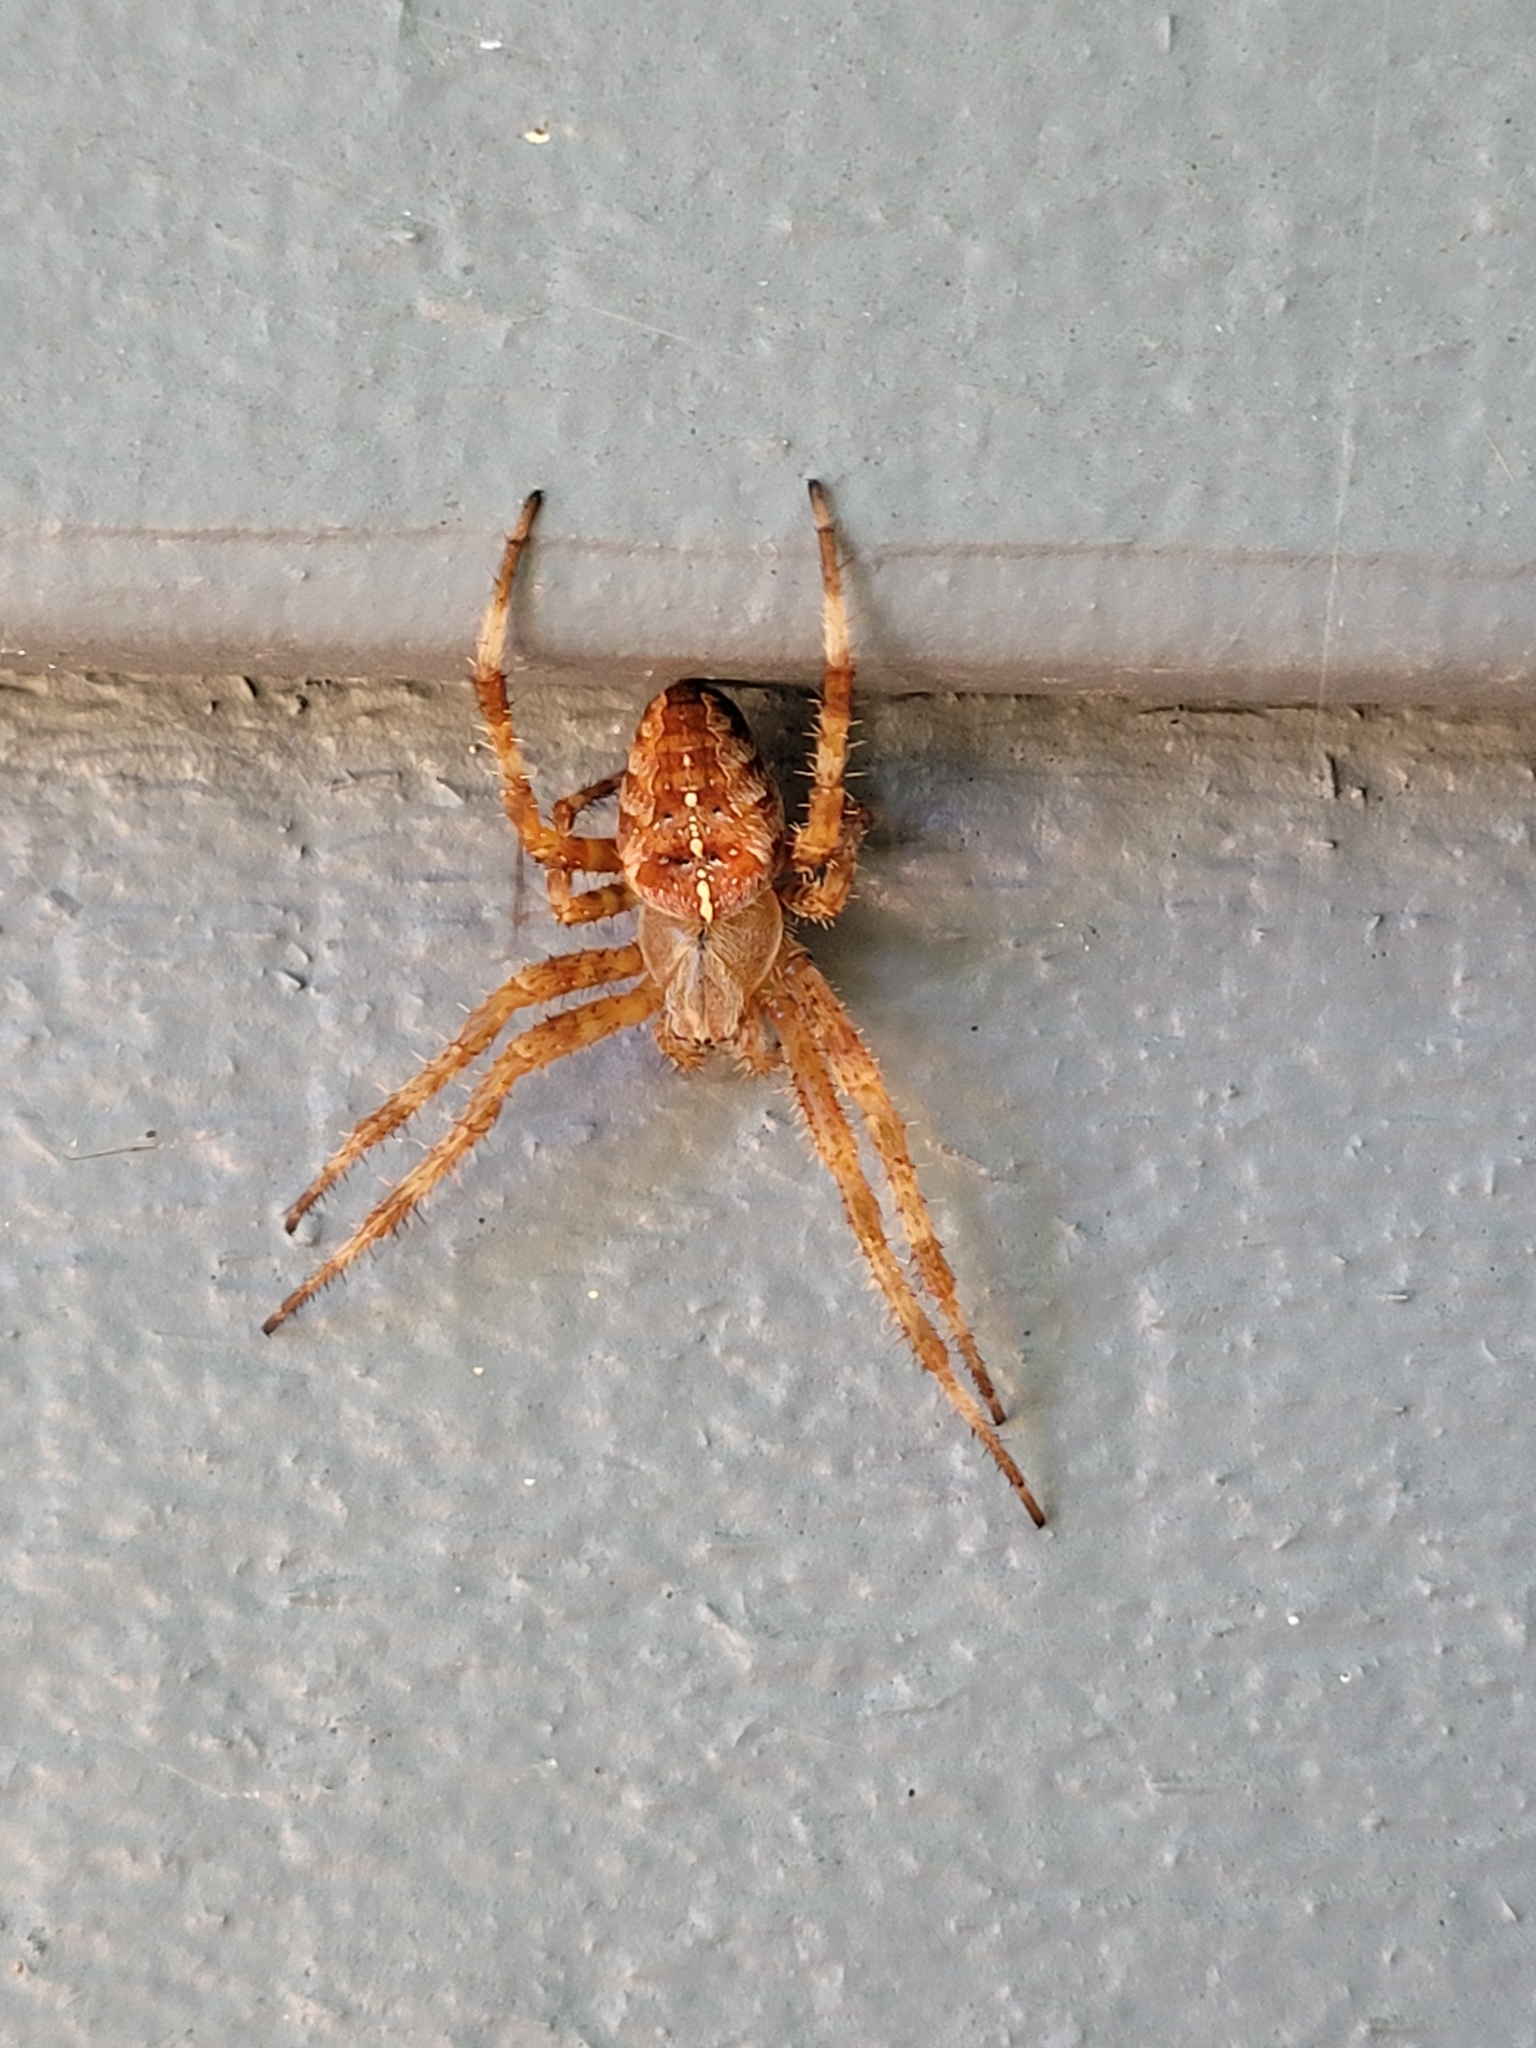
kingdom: Animalia
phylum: Arthropoda
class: Arachnida
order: Araneae
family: Araneidae
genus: Araneus
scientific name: Araneus diadematus
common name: Cross orbweaver
